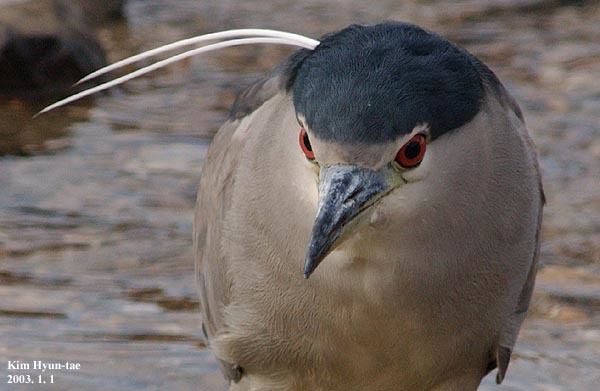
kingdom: Animalia
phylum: Chordata
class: Aves
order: Pelecaniformes
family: Ardeidae
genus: Nycticorax
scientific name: Nycticorax nycticorax
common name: Black-crowned night heron
